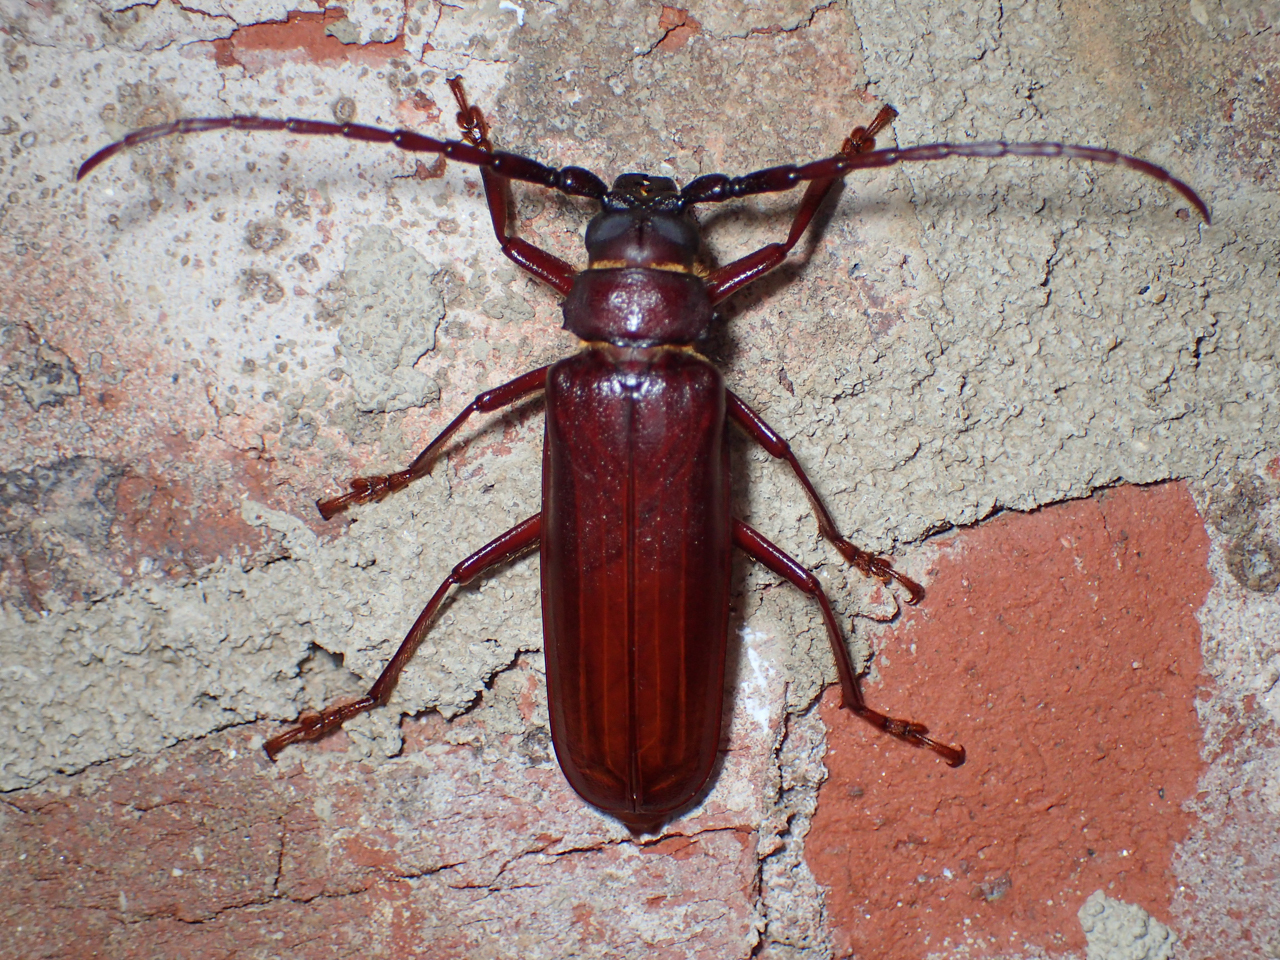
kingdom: Animalia
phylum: Arthropoda
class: Insecta
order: Coleoptera
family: Cerambycidae
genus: Orthosoma
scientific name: Orthosoma brunneum
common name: Brown prionid beetle
